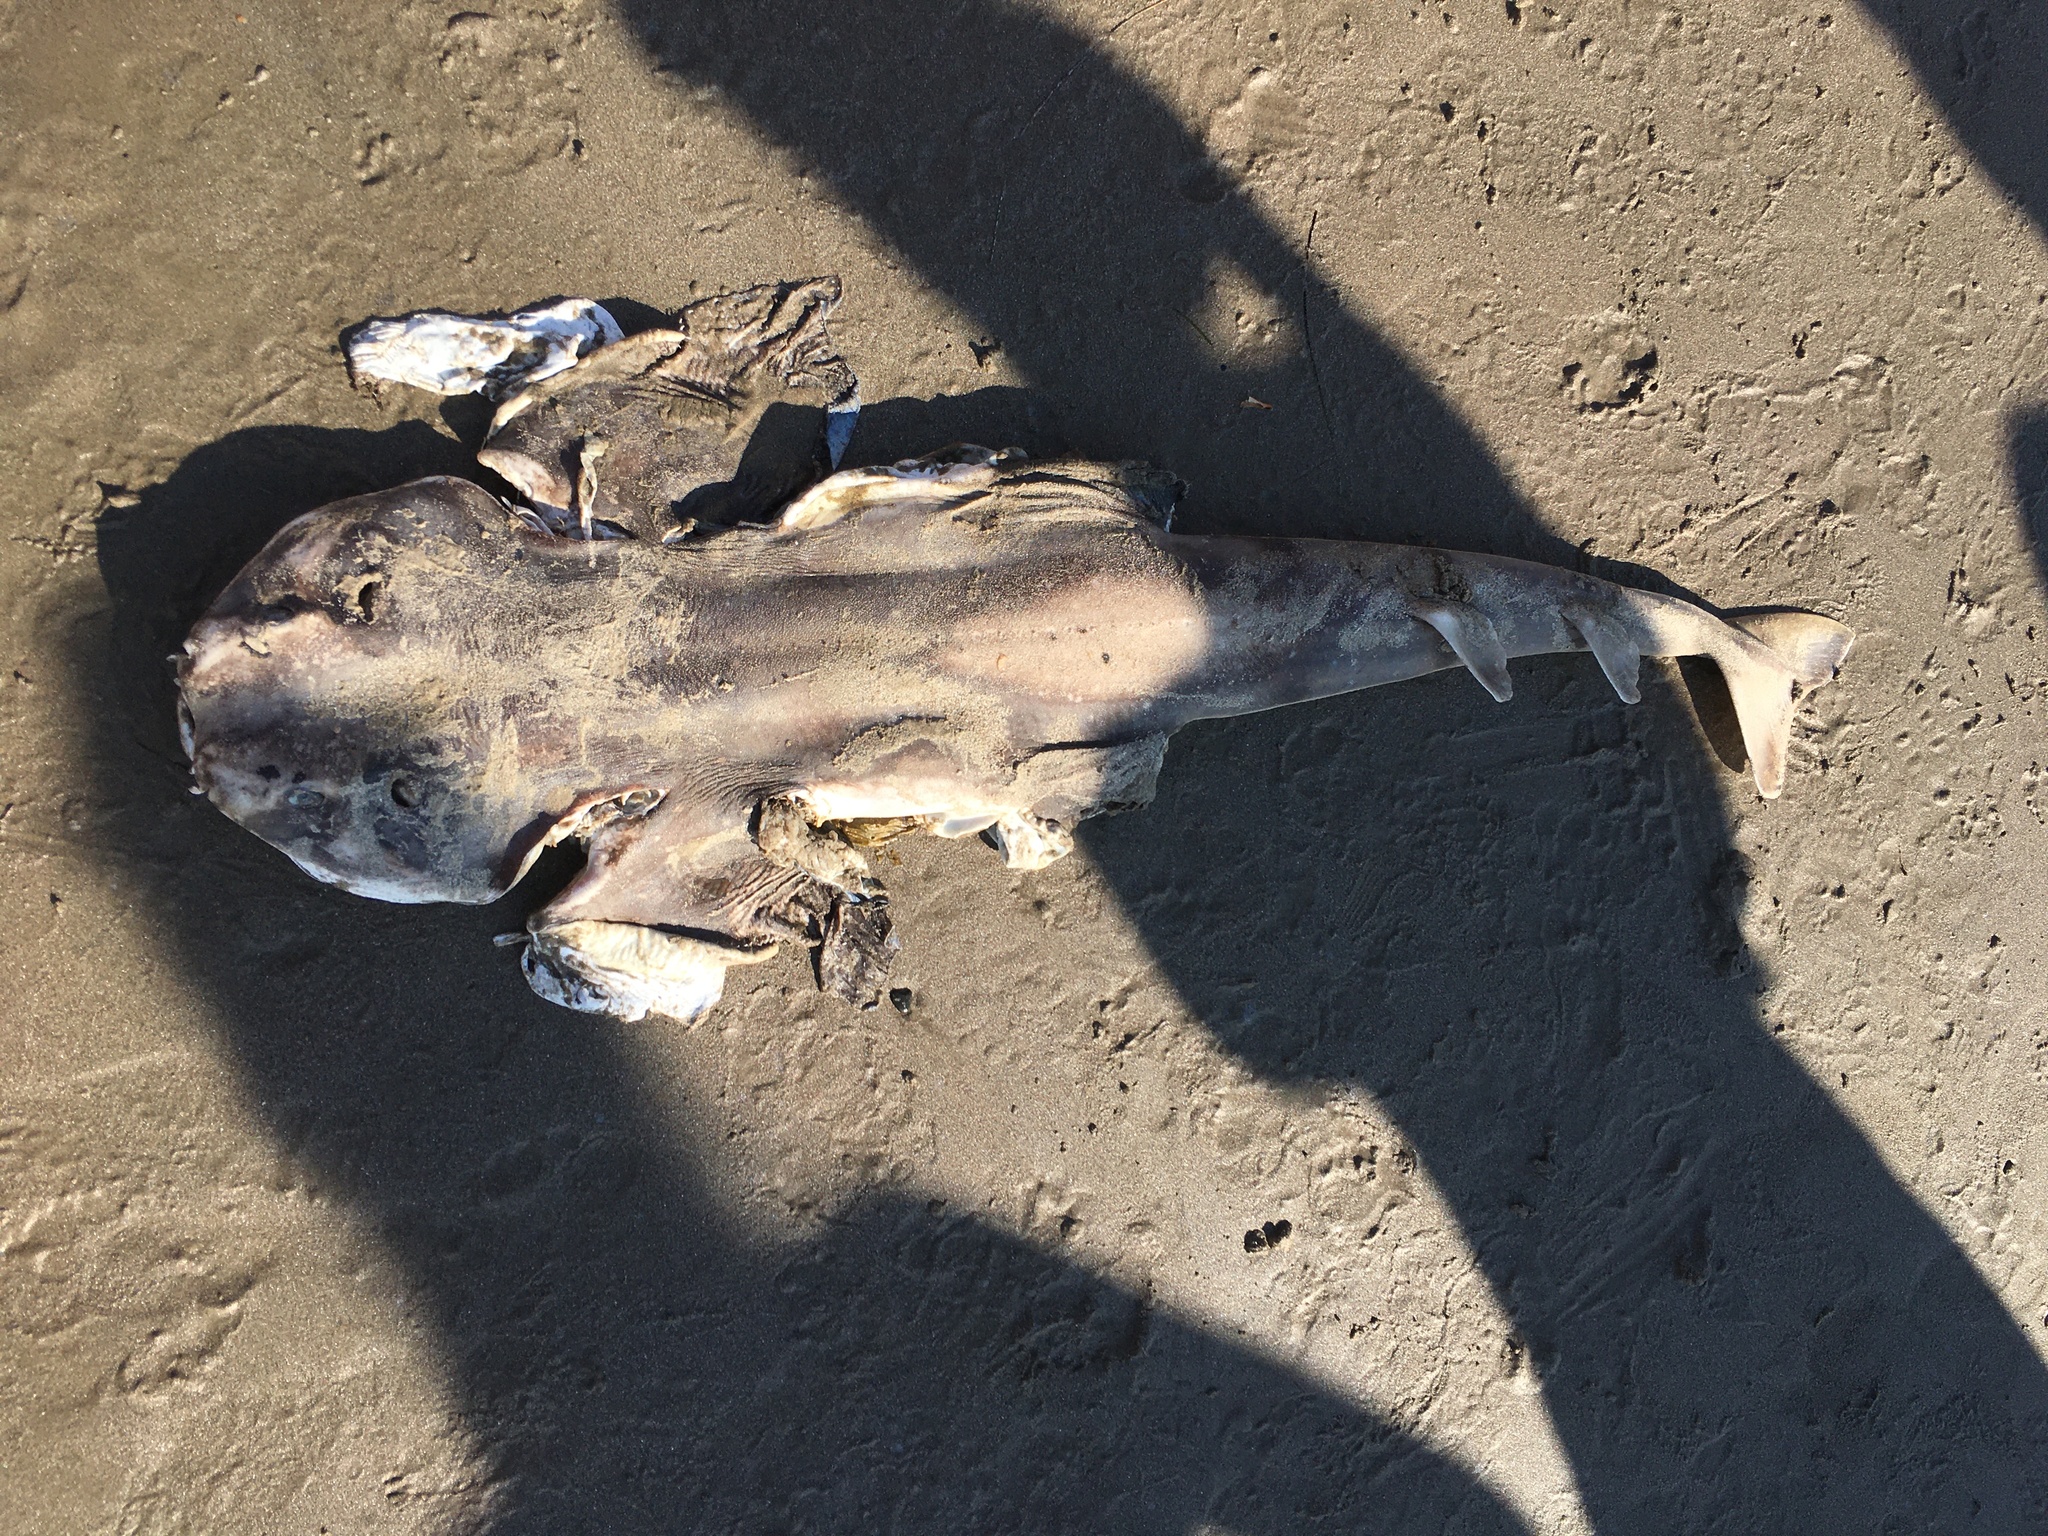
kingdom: Animalia
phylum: Chordata
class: Elasmobranchii
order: Squatiniformes
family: Squatinidae
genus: Squatina
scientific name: Squatina californica
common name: Pacific angel shark
